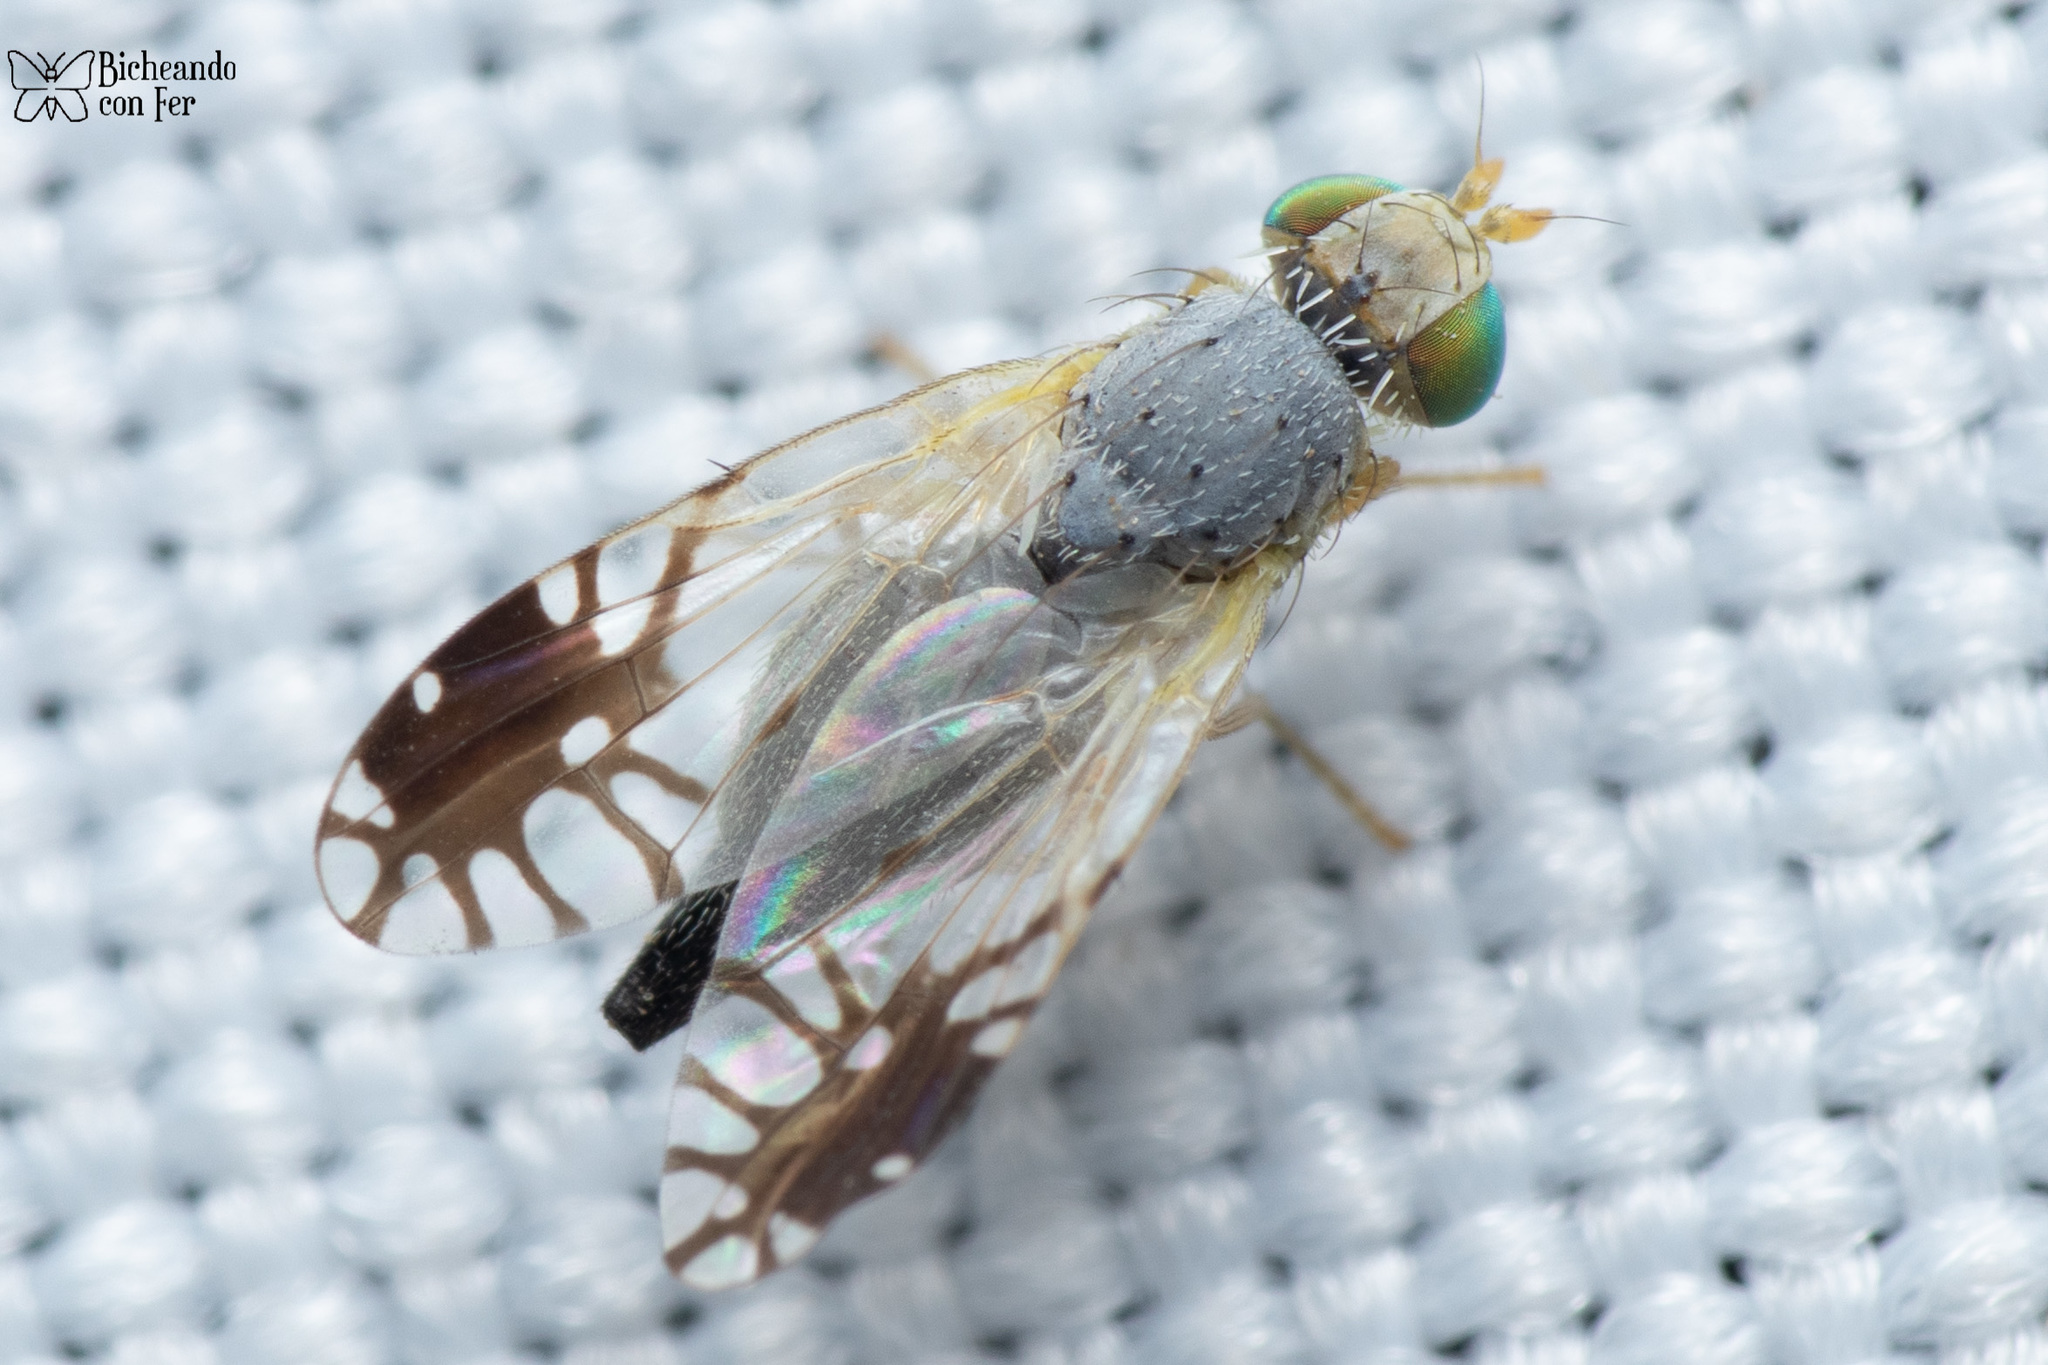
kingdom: Animalia
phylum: Arthropoda
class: Insecta
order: Diptera
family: Tephritidae
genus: Trupanea
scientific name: Trupanea vicina
